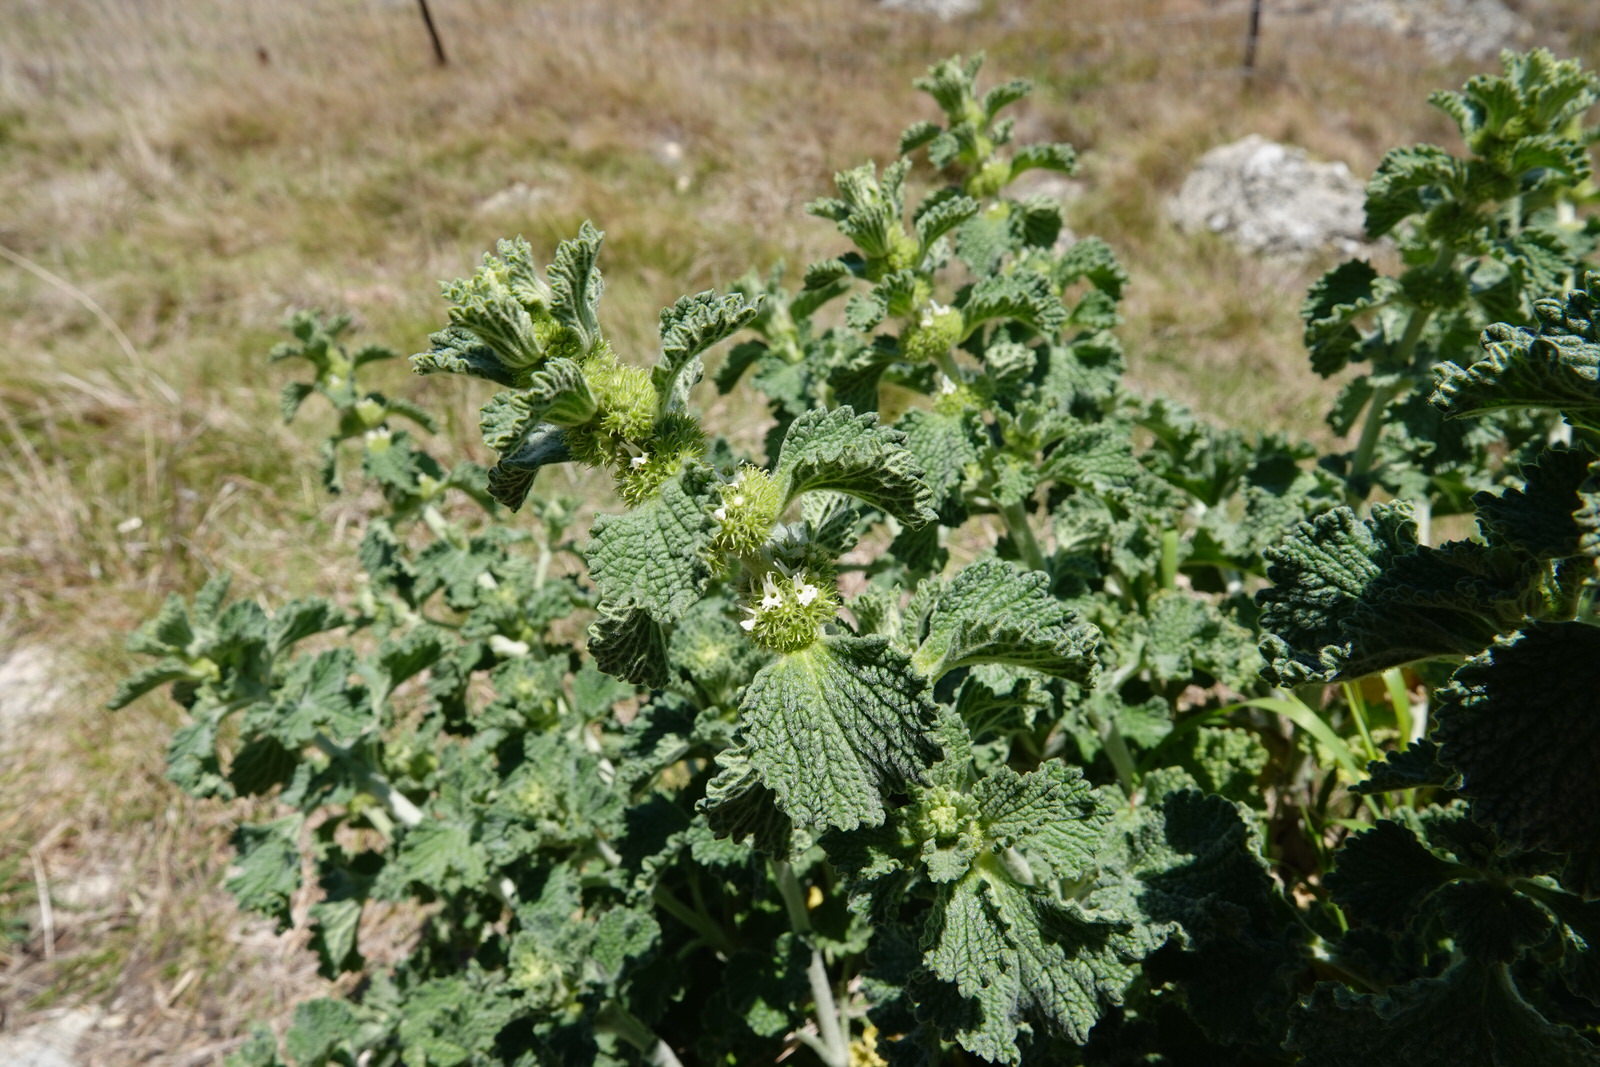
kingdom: Plantae
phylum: Tracheophyta
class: Magnoliopsida
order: Lamiales
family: Lamiaceae
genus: Marrubium
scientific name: Marrubium vulgare
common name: Horehound
